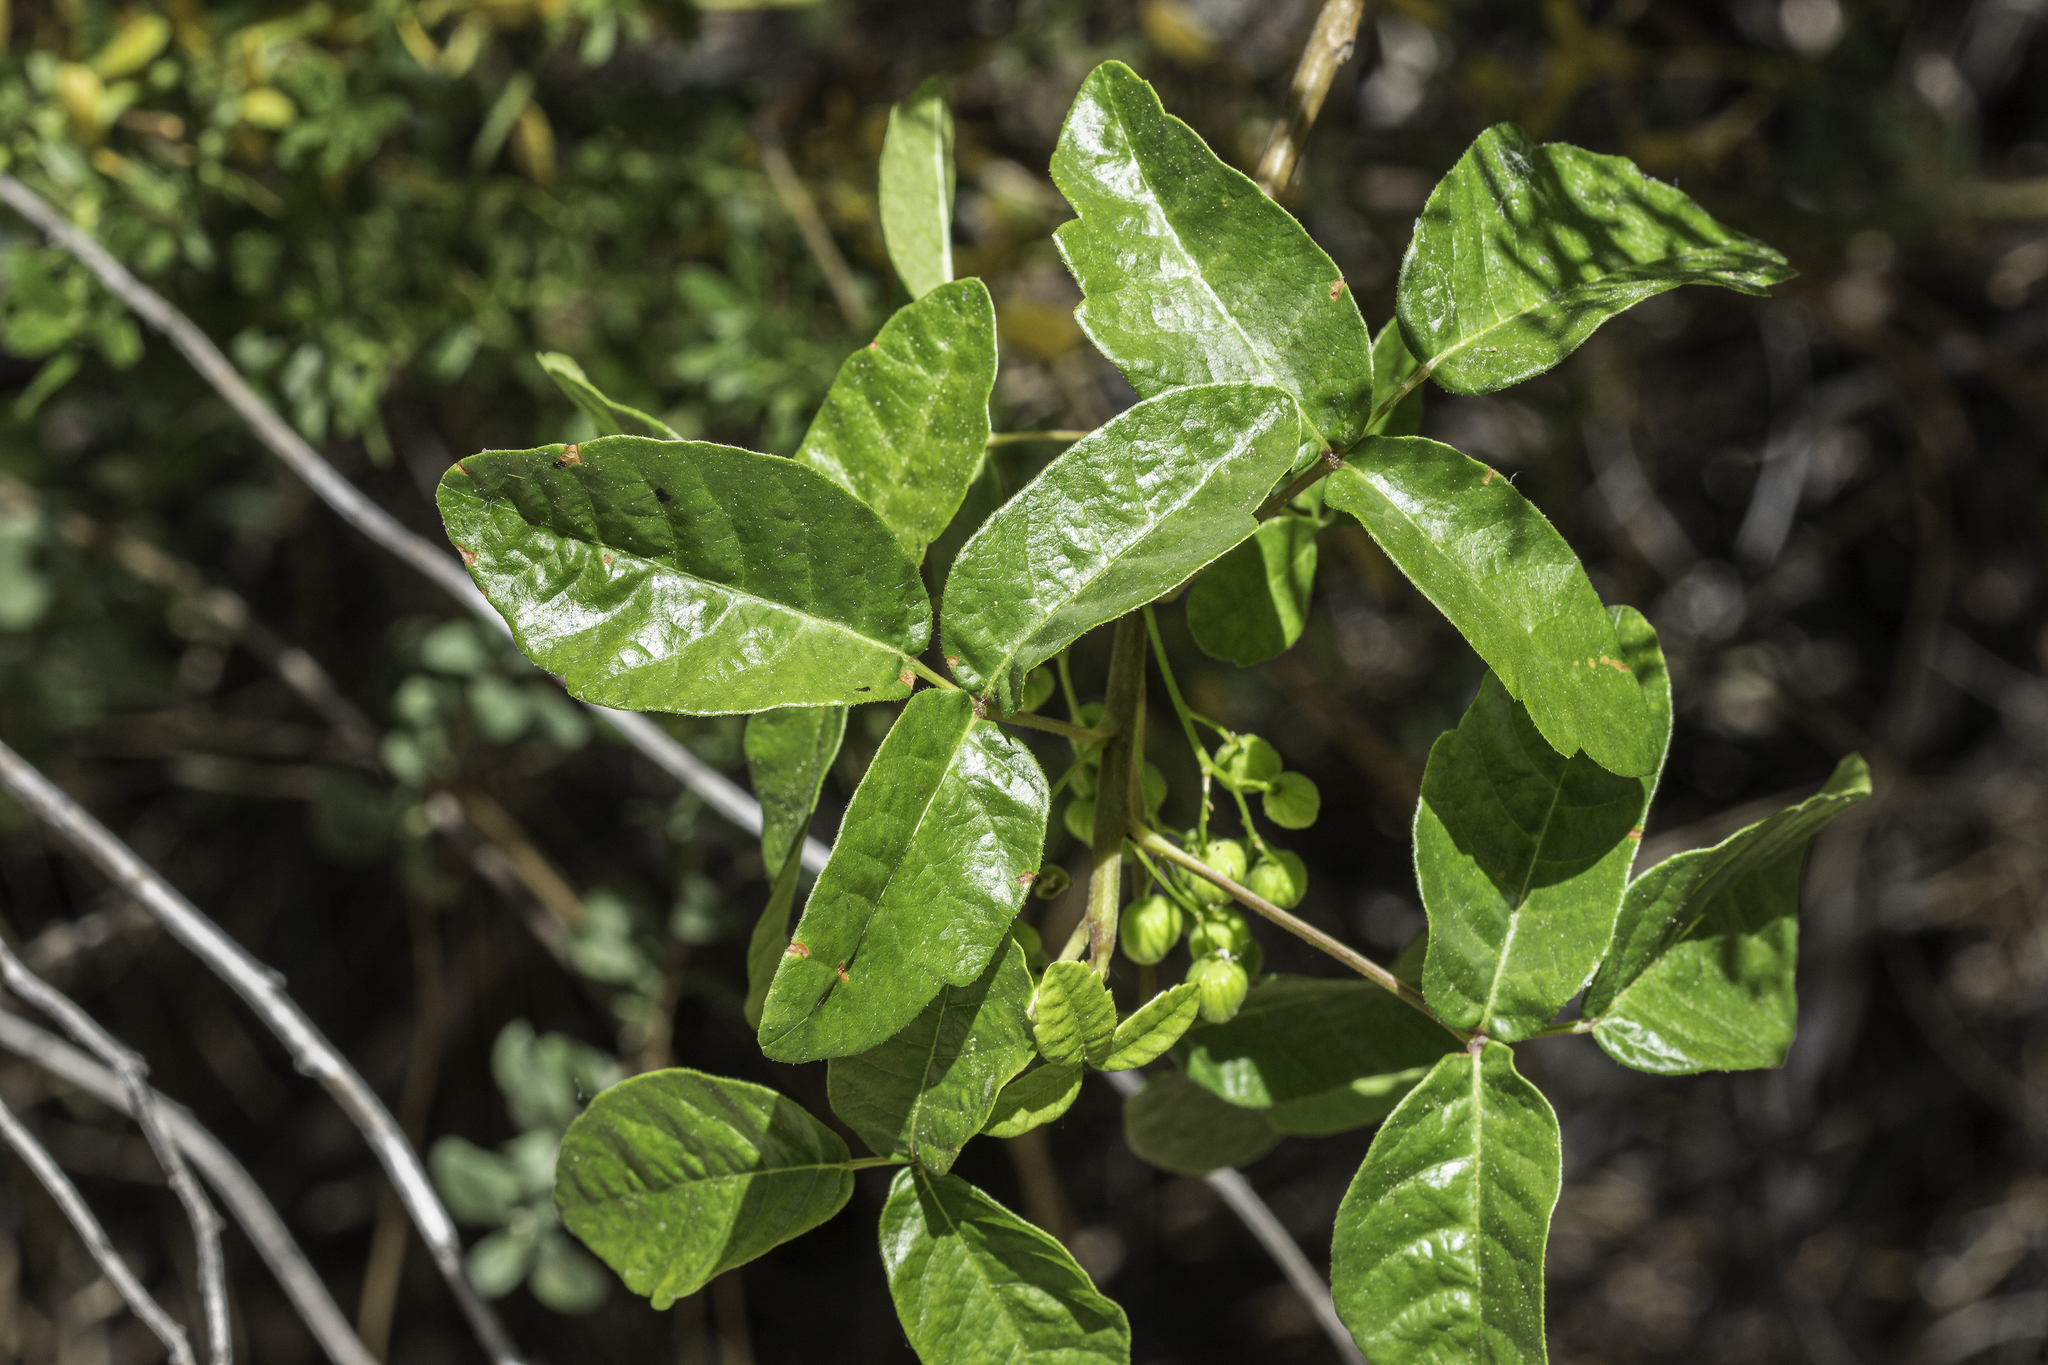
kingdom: Plantae
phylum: Tracheophyta
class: Magnoliopsida
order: Sapindales
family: Anacardiaceae
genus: Toxicodendron
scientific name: Toxicodendron diversilobum
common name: Pacific poison-oak
